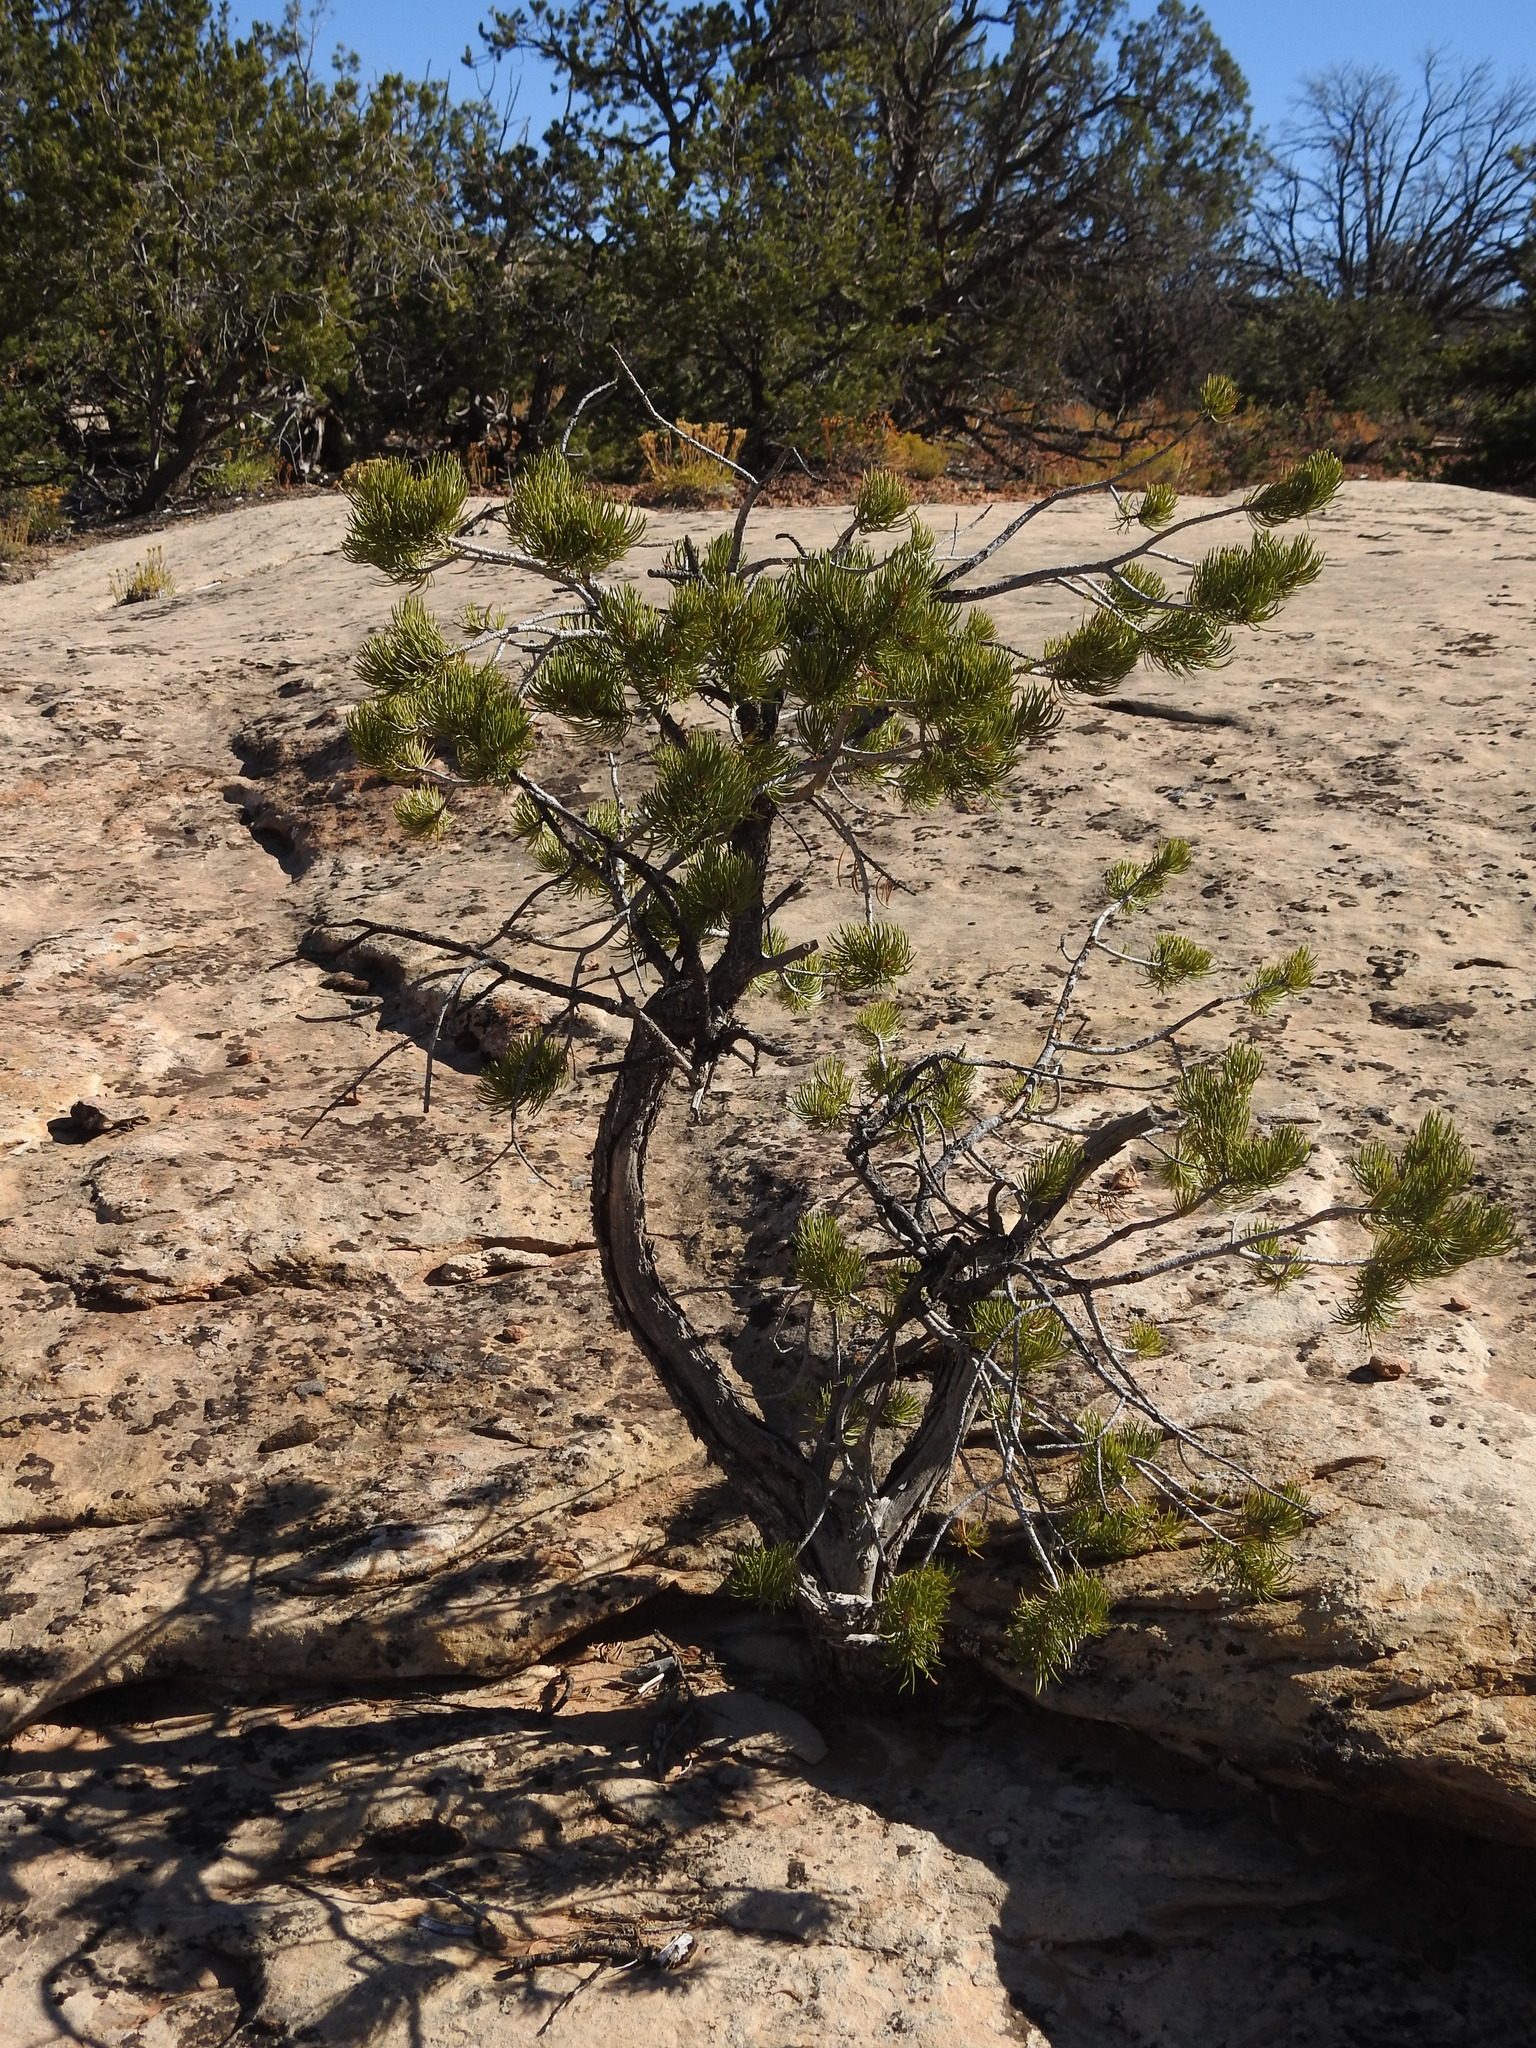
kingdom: Plantae
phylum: Tracheophyta
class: Pinopsida
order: Pinales
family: Pinaceae
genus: Pinus
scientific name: Pinus edulis
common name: Colorado pinyon
